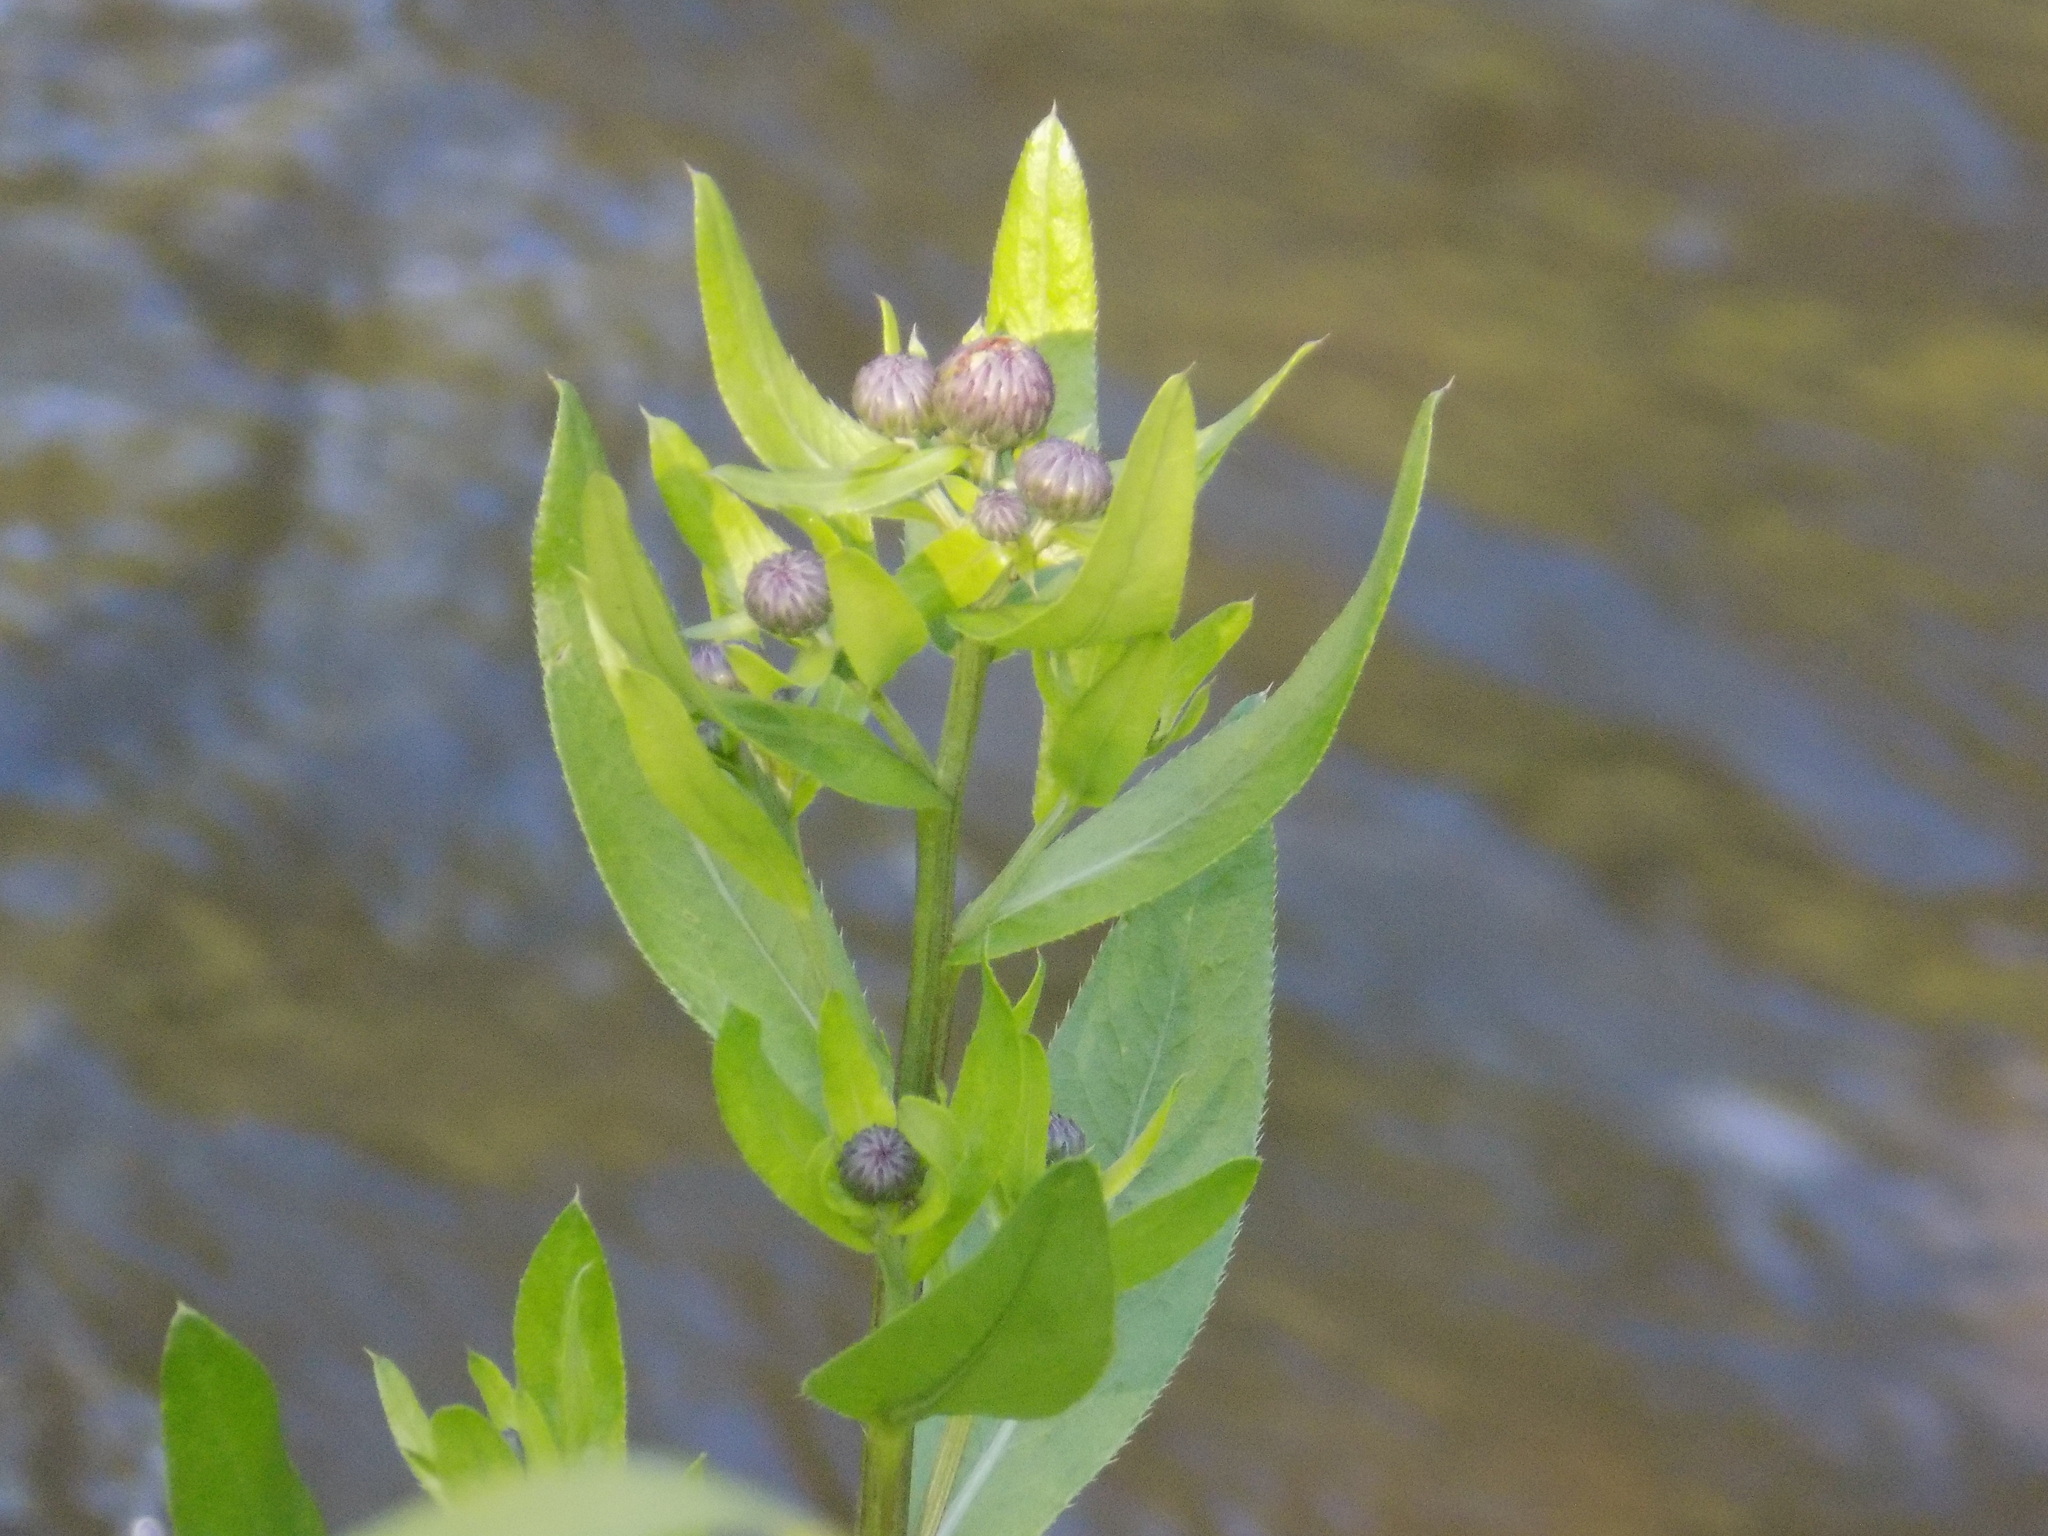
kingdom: Plantae
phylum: Tracheophyta
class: Magnoliopsida
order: Asterales
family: Asteraceae
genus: Cirsium
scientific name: Cirsium arvense
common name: Creeping thistle
